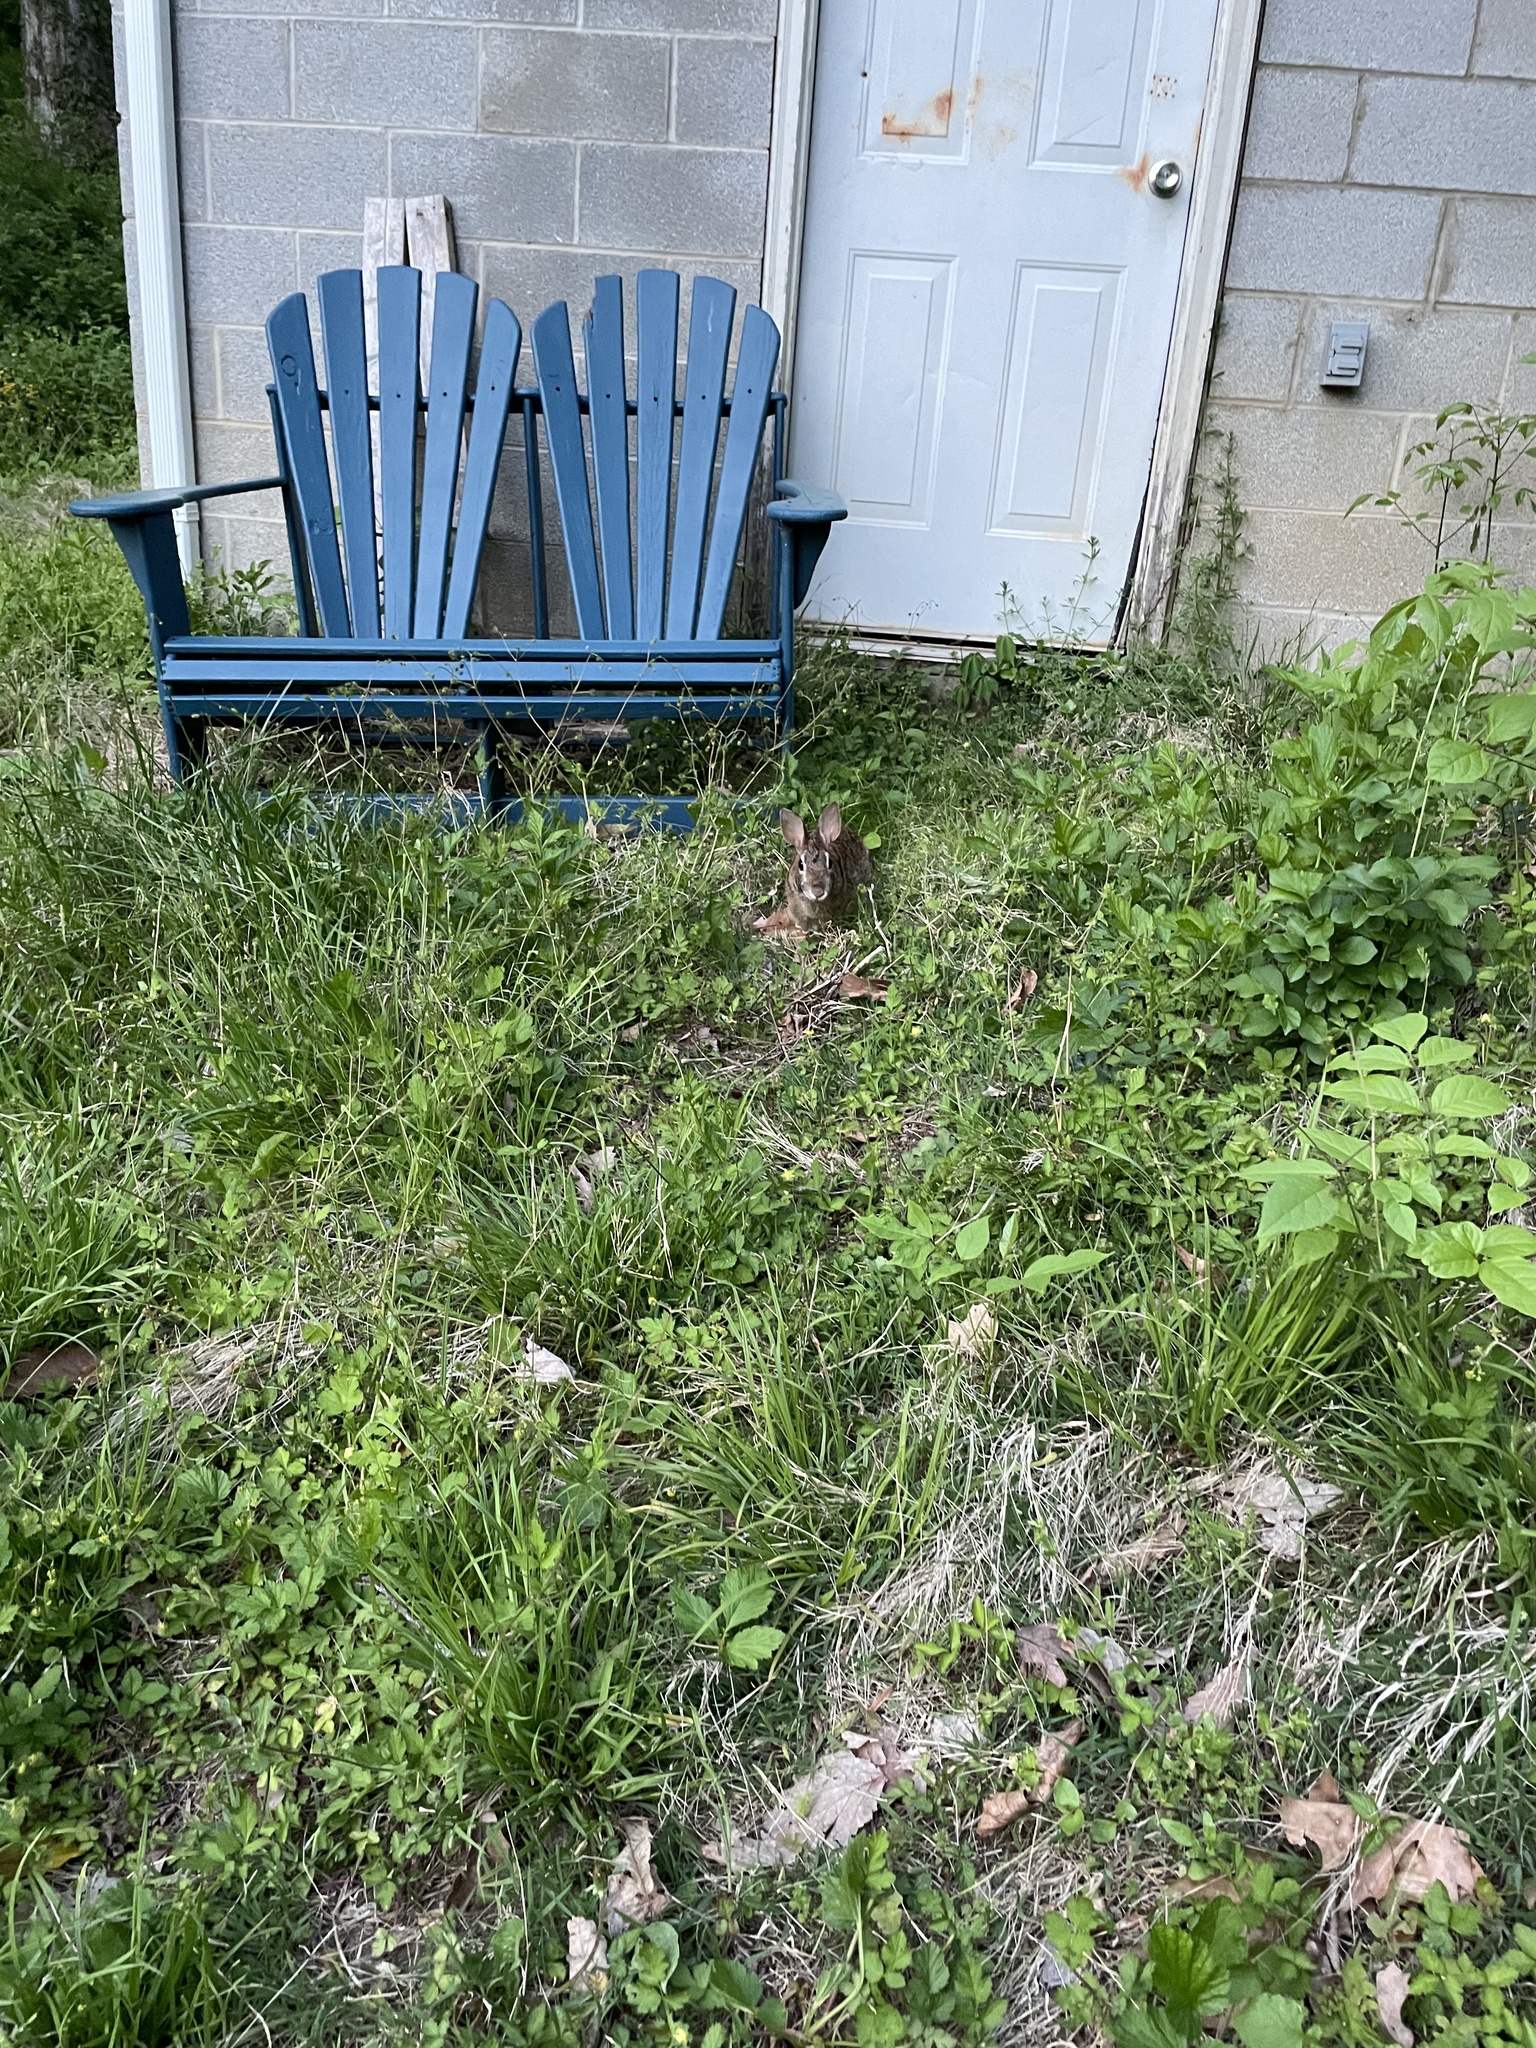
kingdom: Animalia
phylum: Chordata
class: Mammalia
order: Lagomorpha
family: Leporidae
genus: Sylvilagus
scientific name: Sylvilagus floridanus
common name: Eastern cottontail
